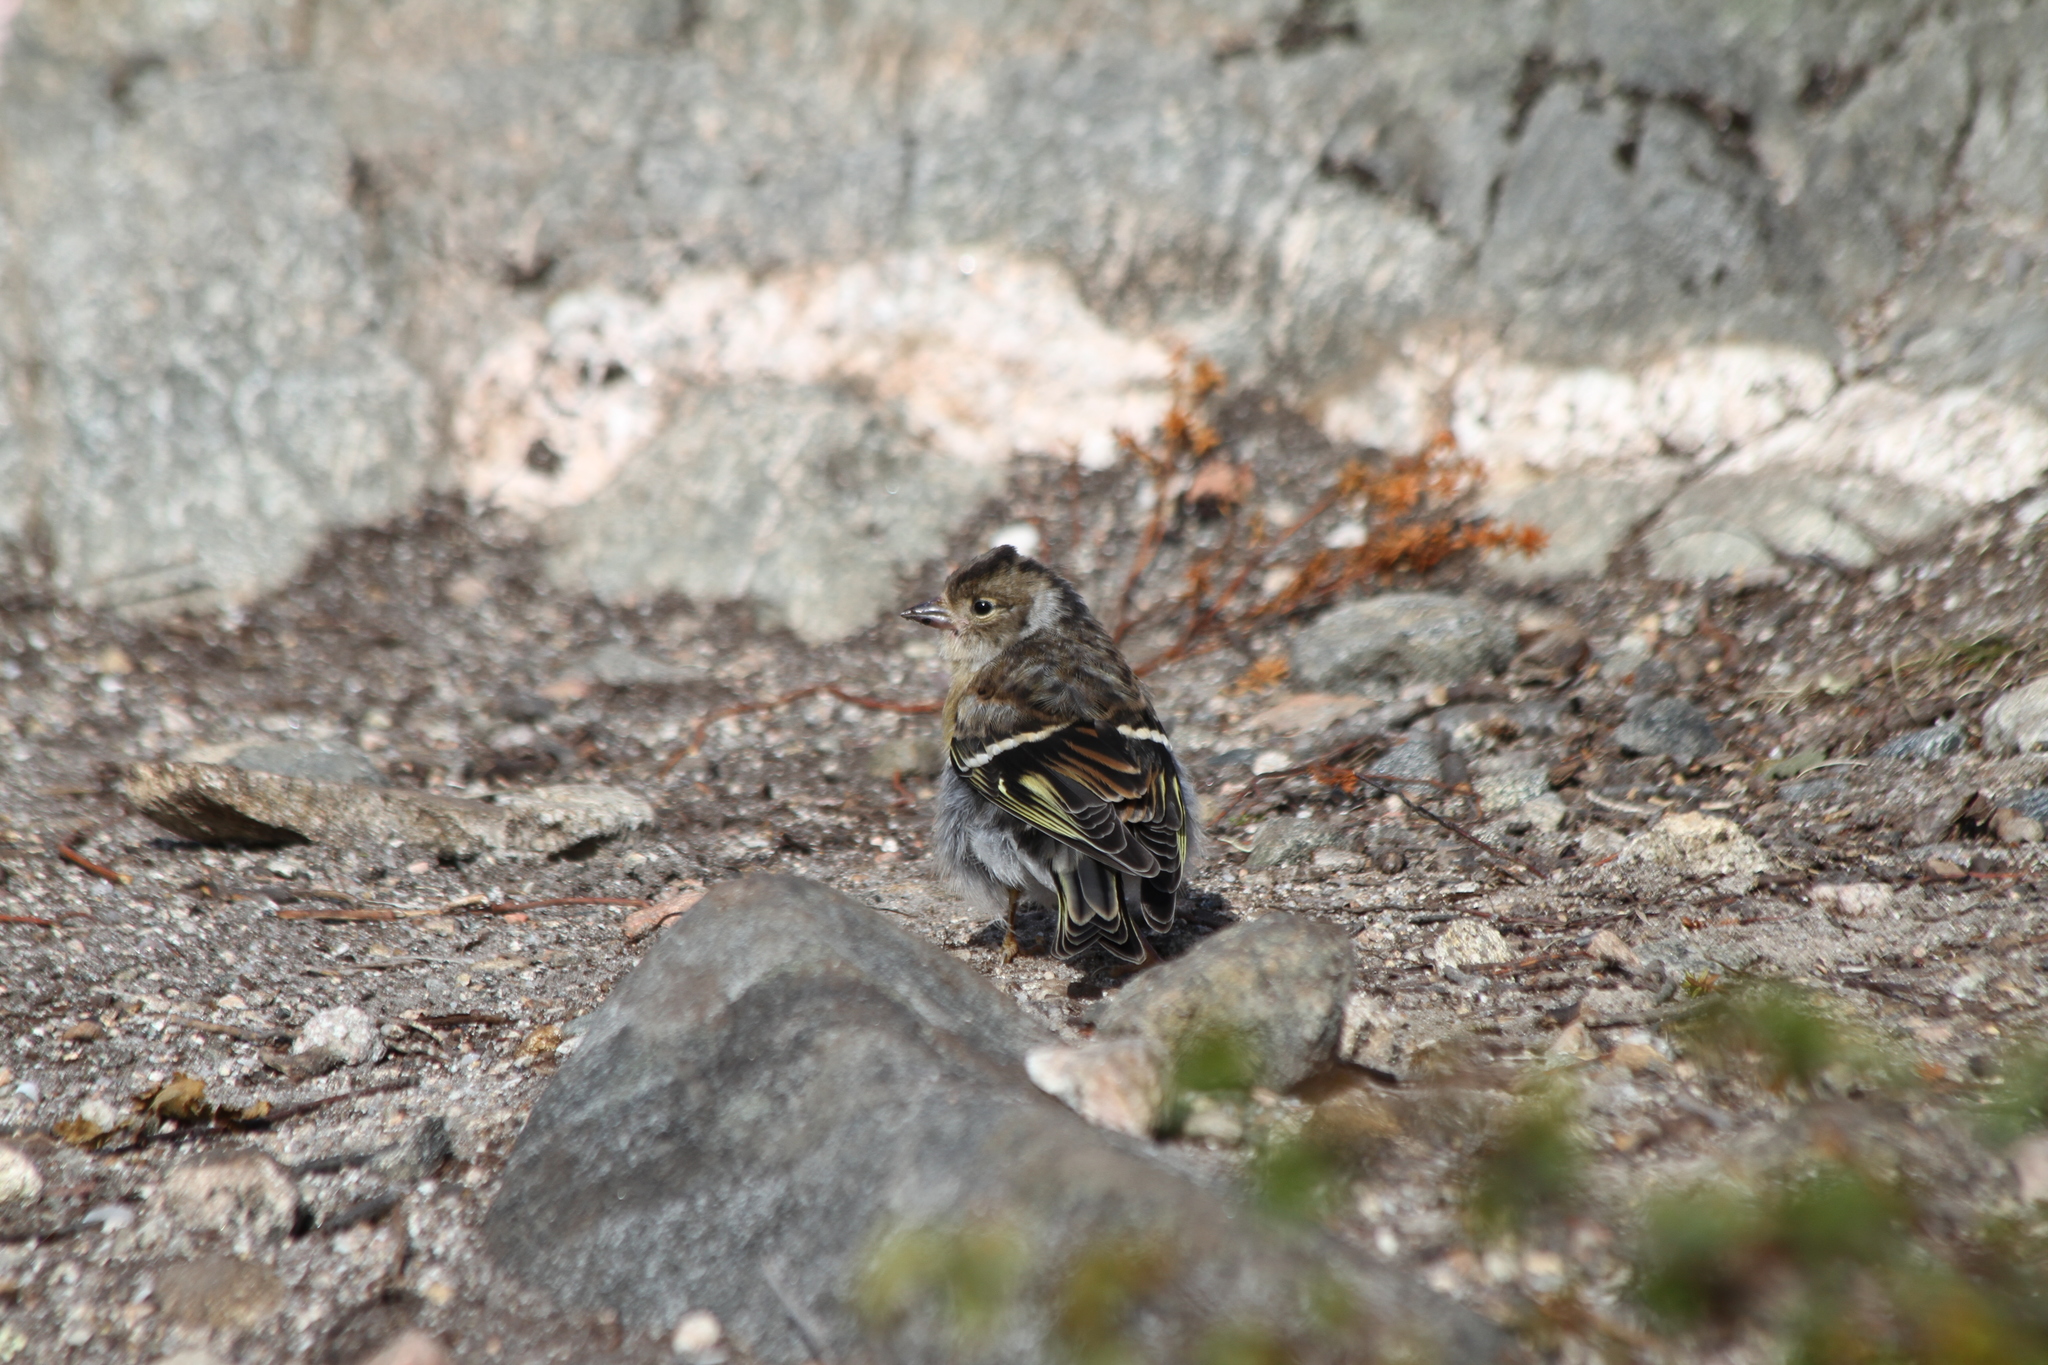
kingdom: Animalia
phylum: Chordata
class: Aves
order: Passeriformes
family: Fringillidae
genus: Fringilla
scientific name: Fringilla montifringilla
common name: Brambling
